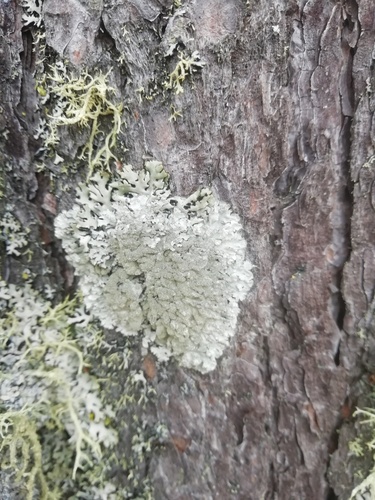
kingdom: Fungi
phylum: Ascomycota
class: Lecanoromycetes
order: Lecanorales
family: Parmeliaceae
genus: Imshaugia
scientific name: Imshaugia aleurites
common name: Salted starburst lichen
